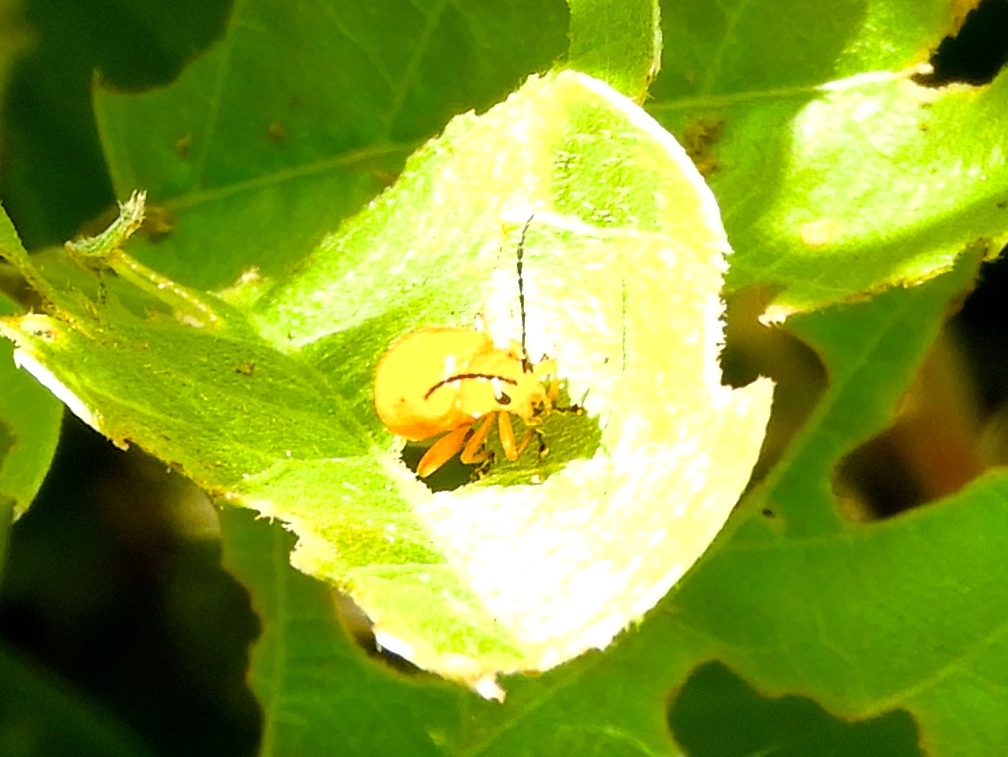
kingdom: Animalia
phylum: Arthropoda
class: Insecta
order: Coleoptera
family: Chrysomelidae
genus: Alticini
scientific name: Alticini
